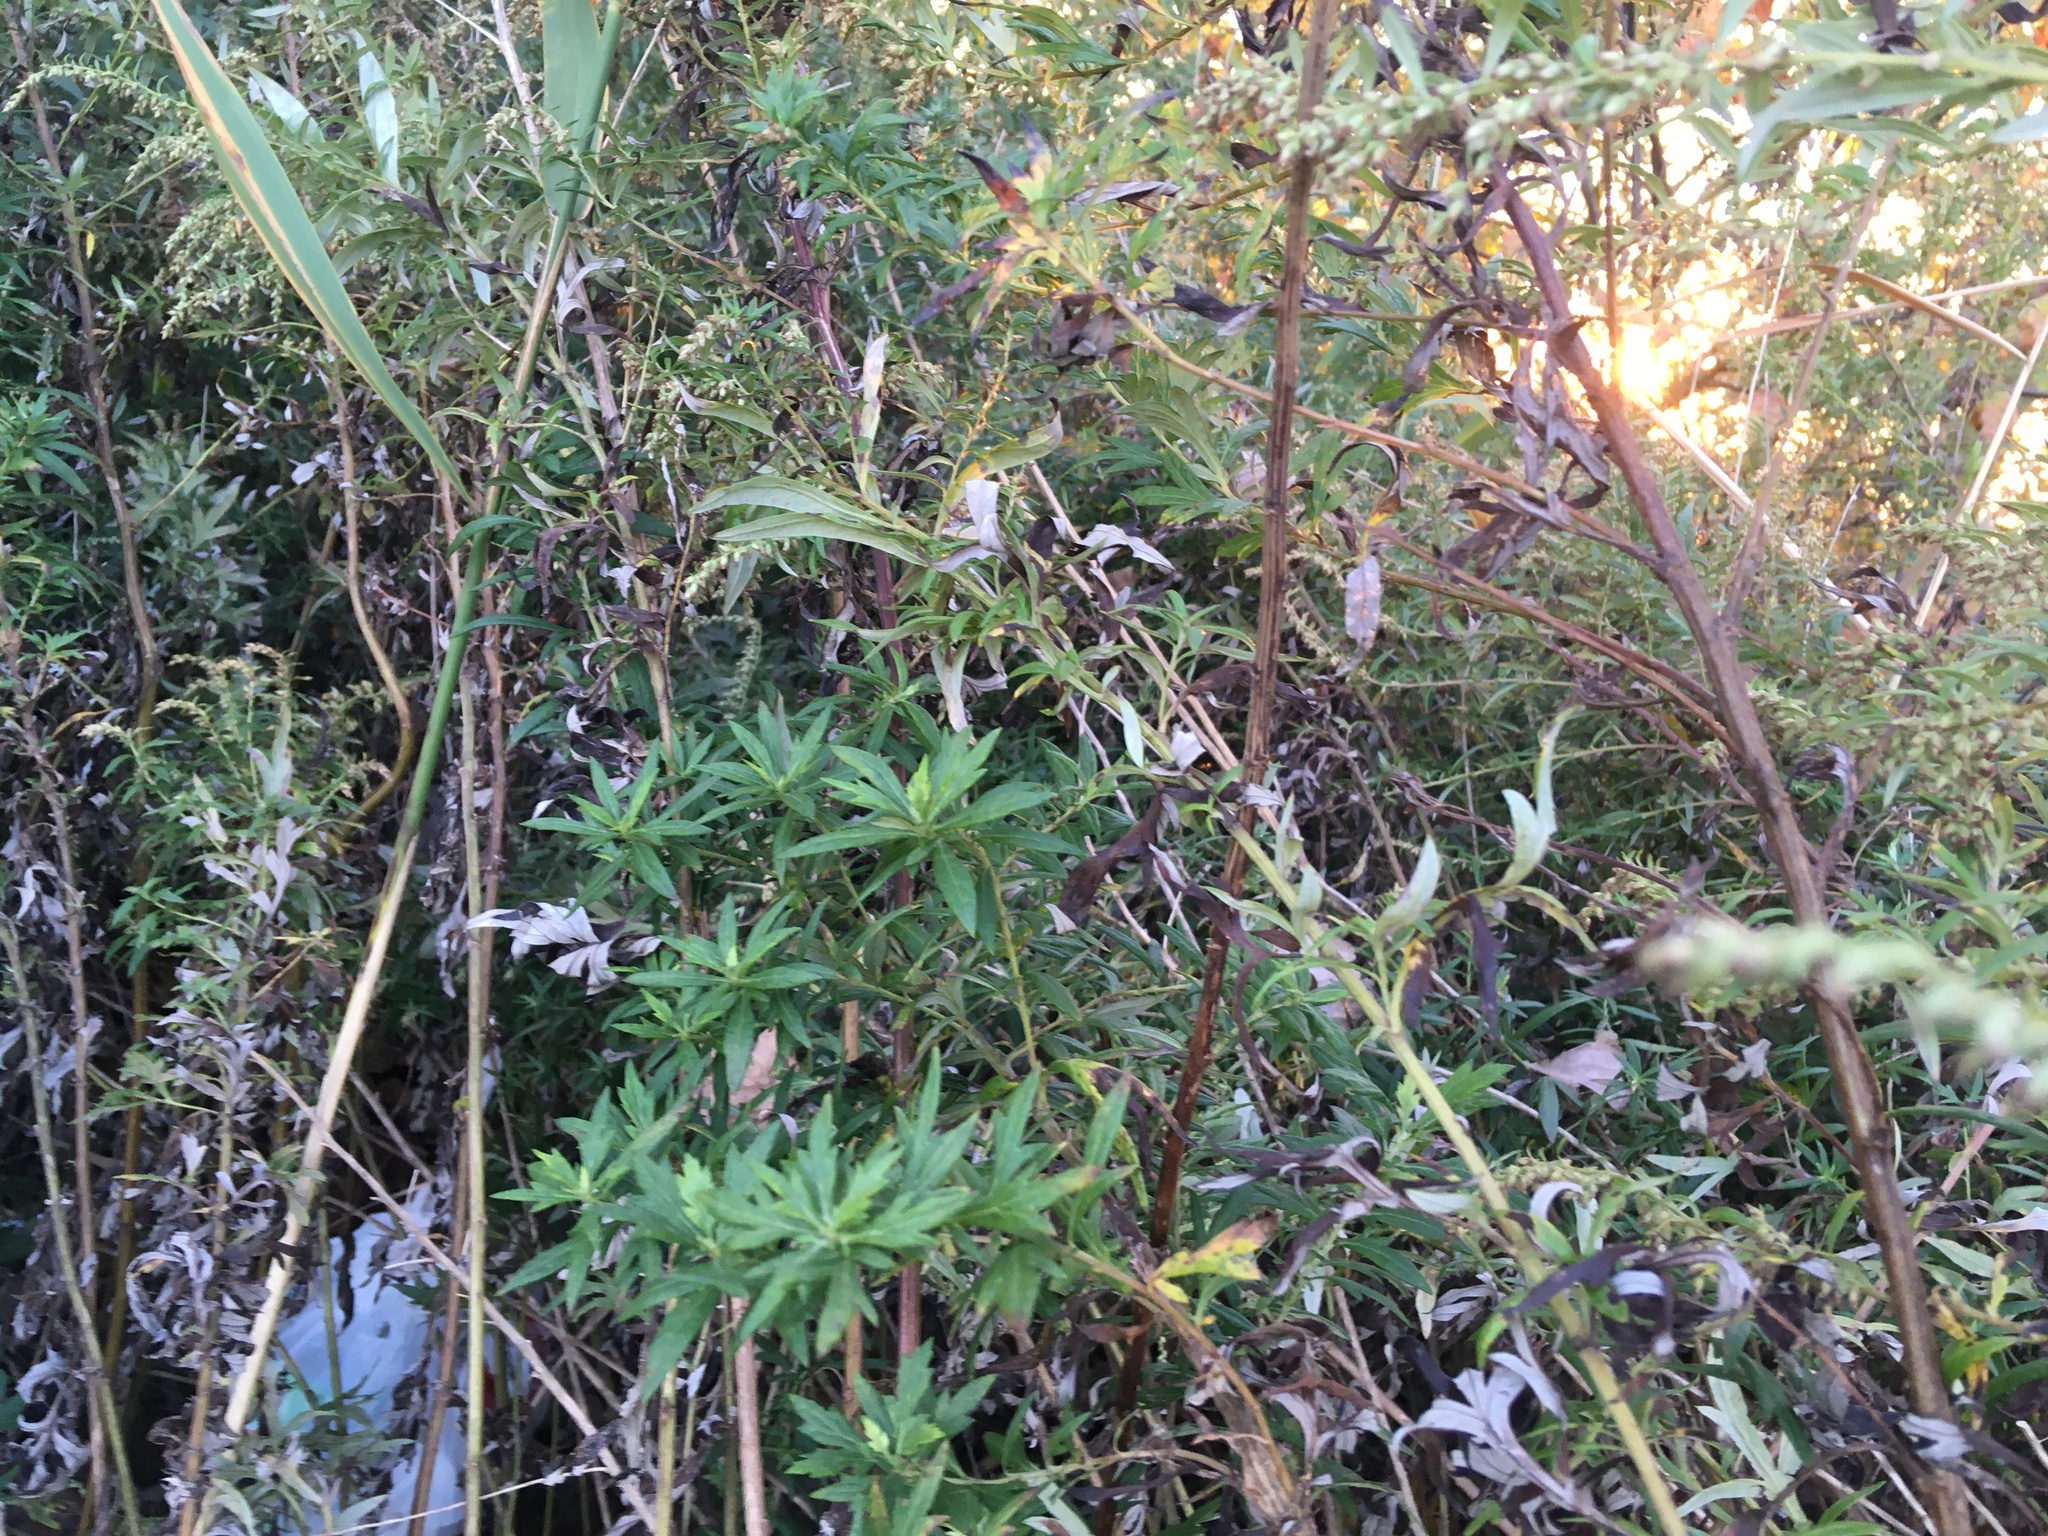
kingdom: Plantae
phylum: Tracheophyta
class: Magnoliopsida
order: Asterales
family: Asteraceae
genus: Artemisia
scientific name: Artemisia vulgaris
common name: Mugwort
